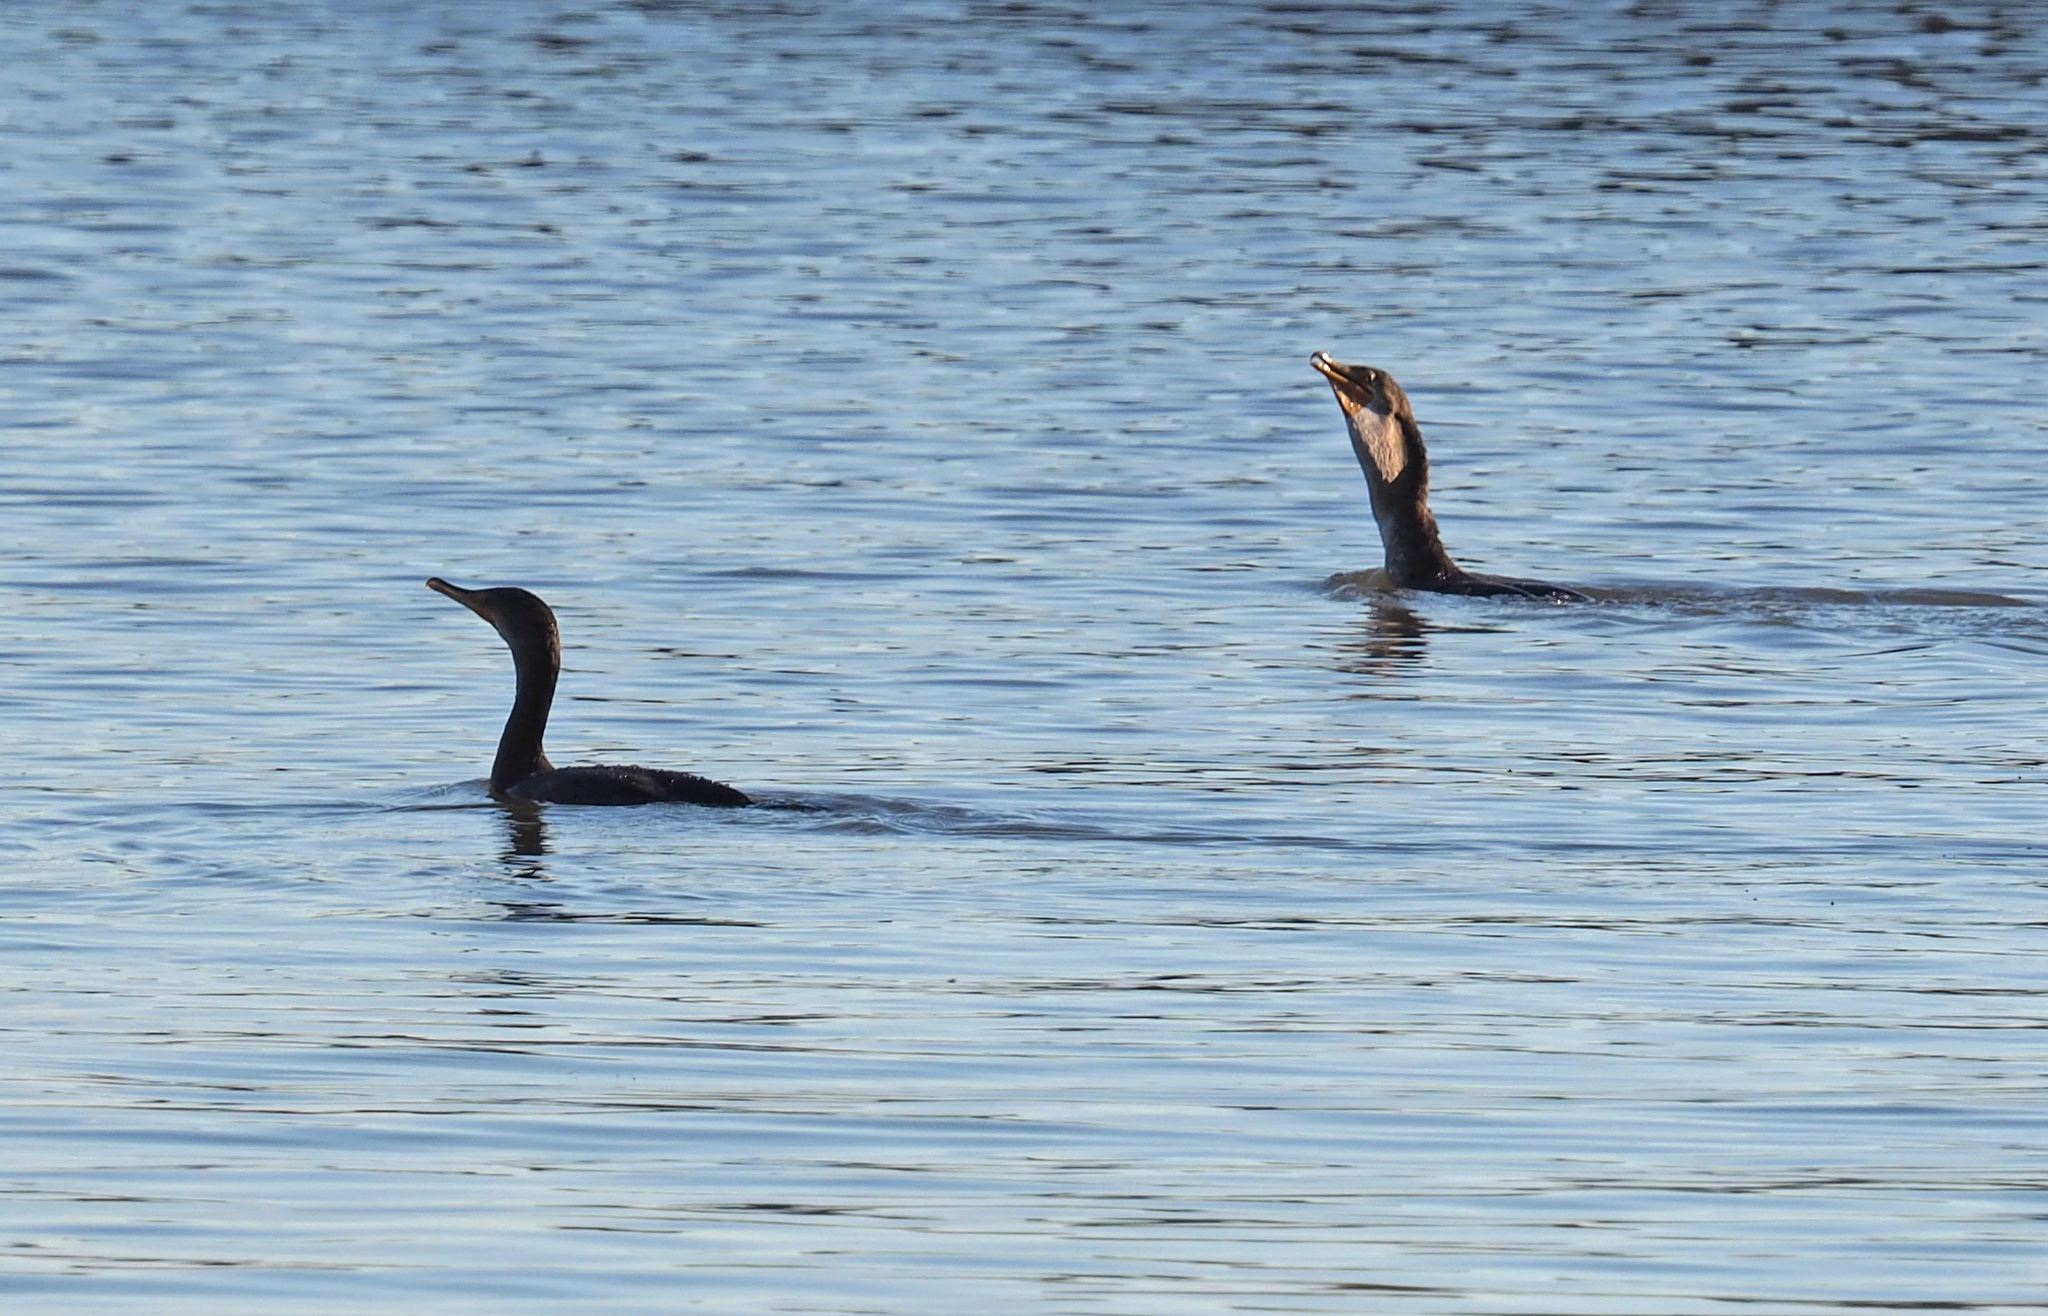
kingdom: Animalia
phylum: Chordata
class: Aves
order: Suliformes
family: Phalacrocoracidae
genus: Phalacrocorax
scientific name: Phalacrocorax auritus
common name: Double-crested cormorant
